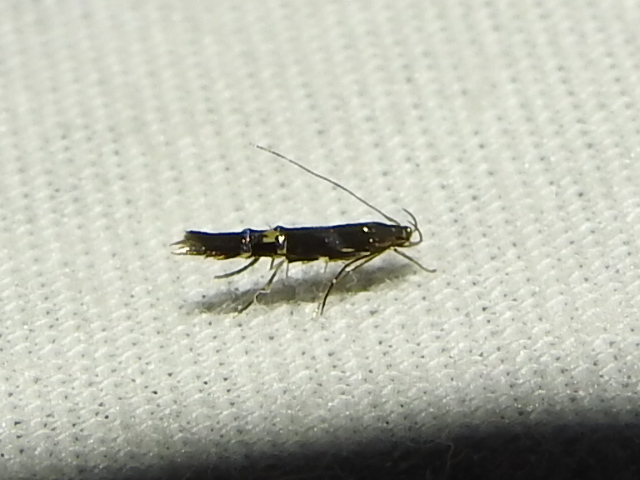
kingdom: Animalia
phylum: Arthropoda
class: Insecta
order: Lepidoptera
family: Cosmopterigidae
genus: Cosmopterix
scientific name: Cosmopterix nitens
